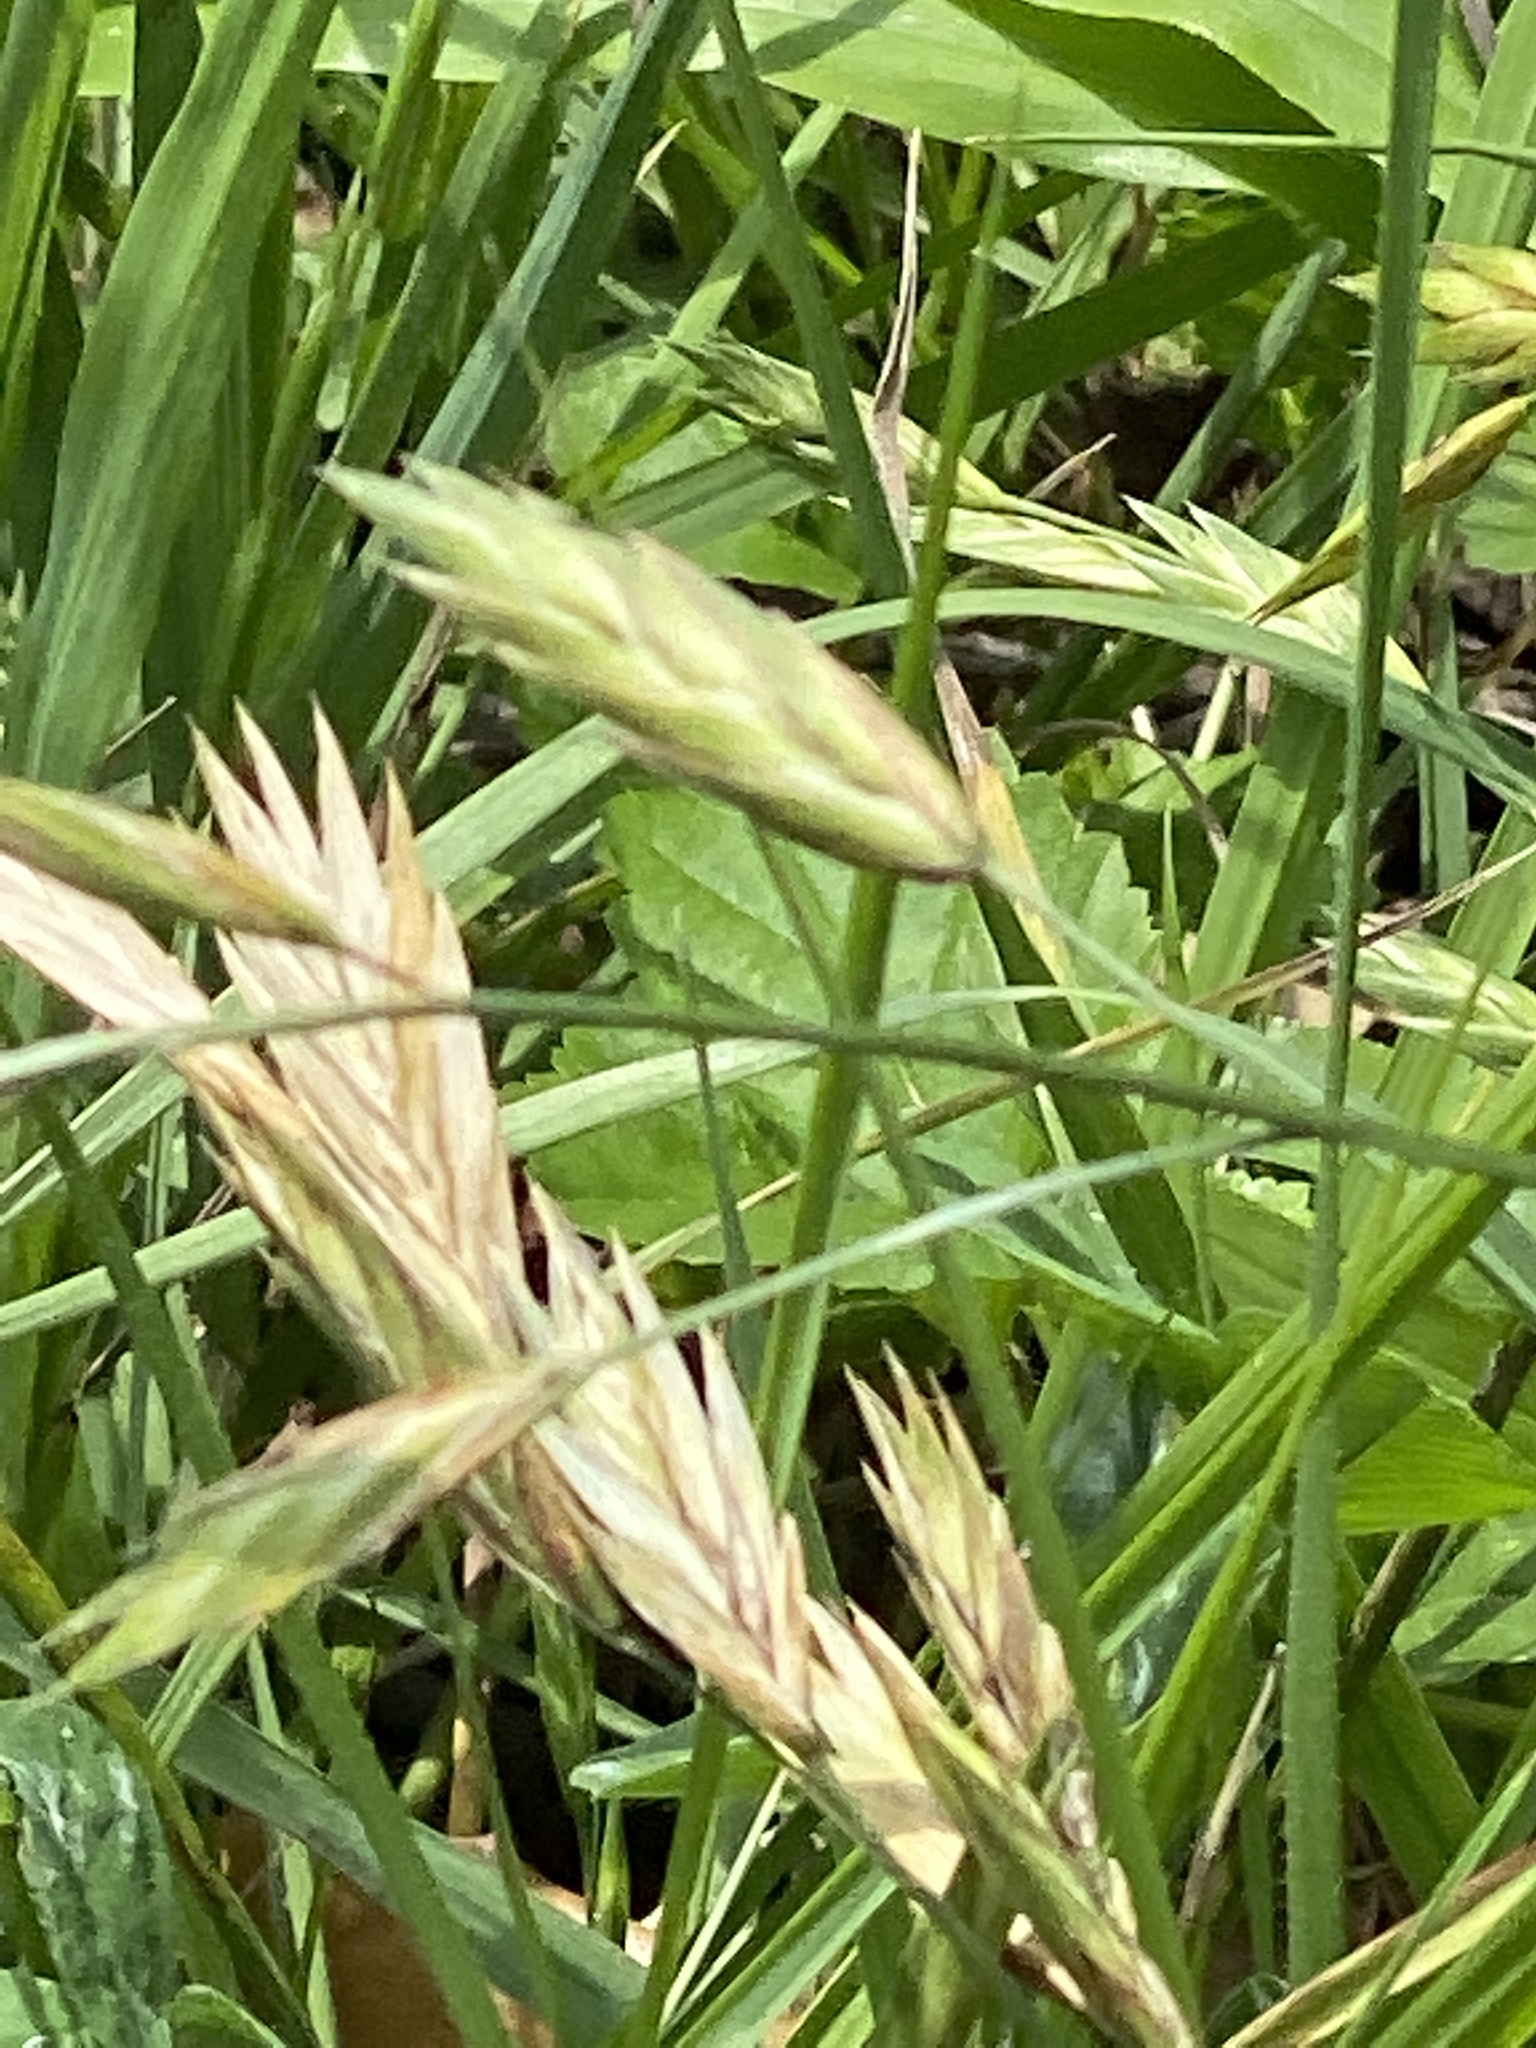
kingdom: Plantae
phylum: Tracheophyta
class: Liliopsida
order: Poales
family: Poaceae
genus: Bromus
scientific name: Bromus catharticus
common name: Rescuegrass
